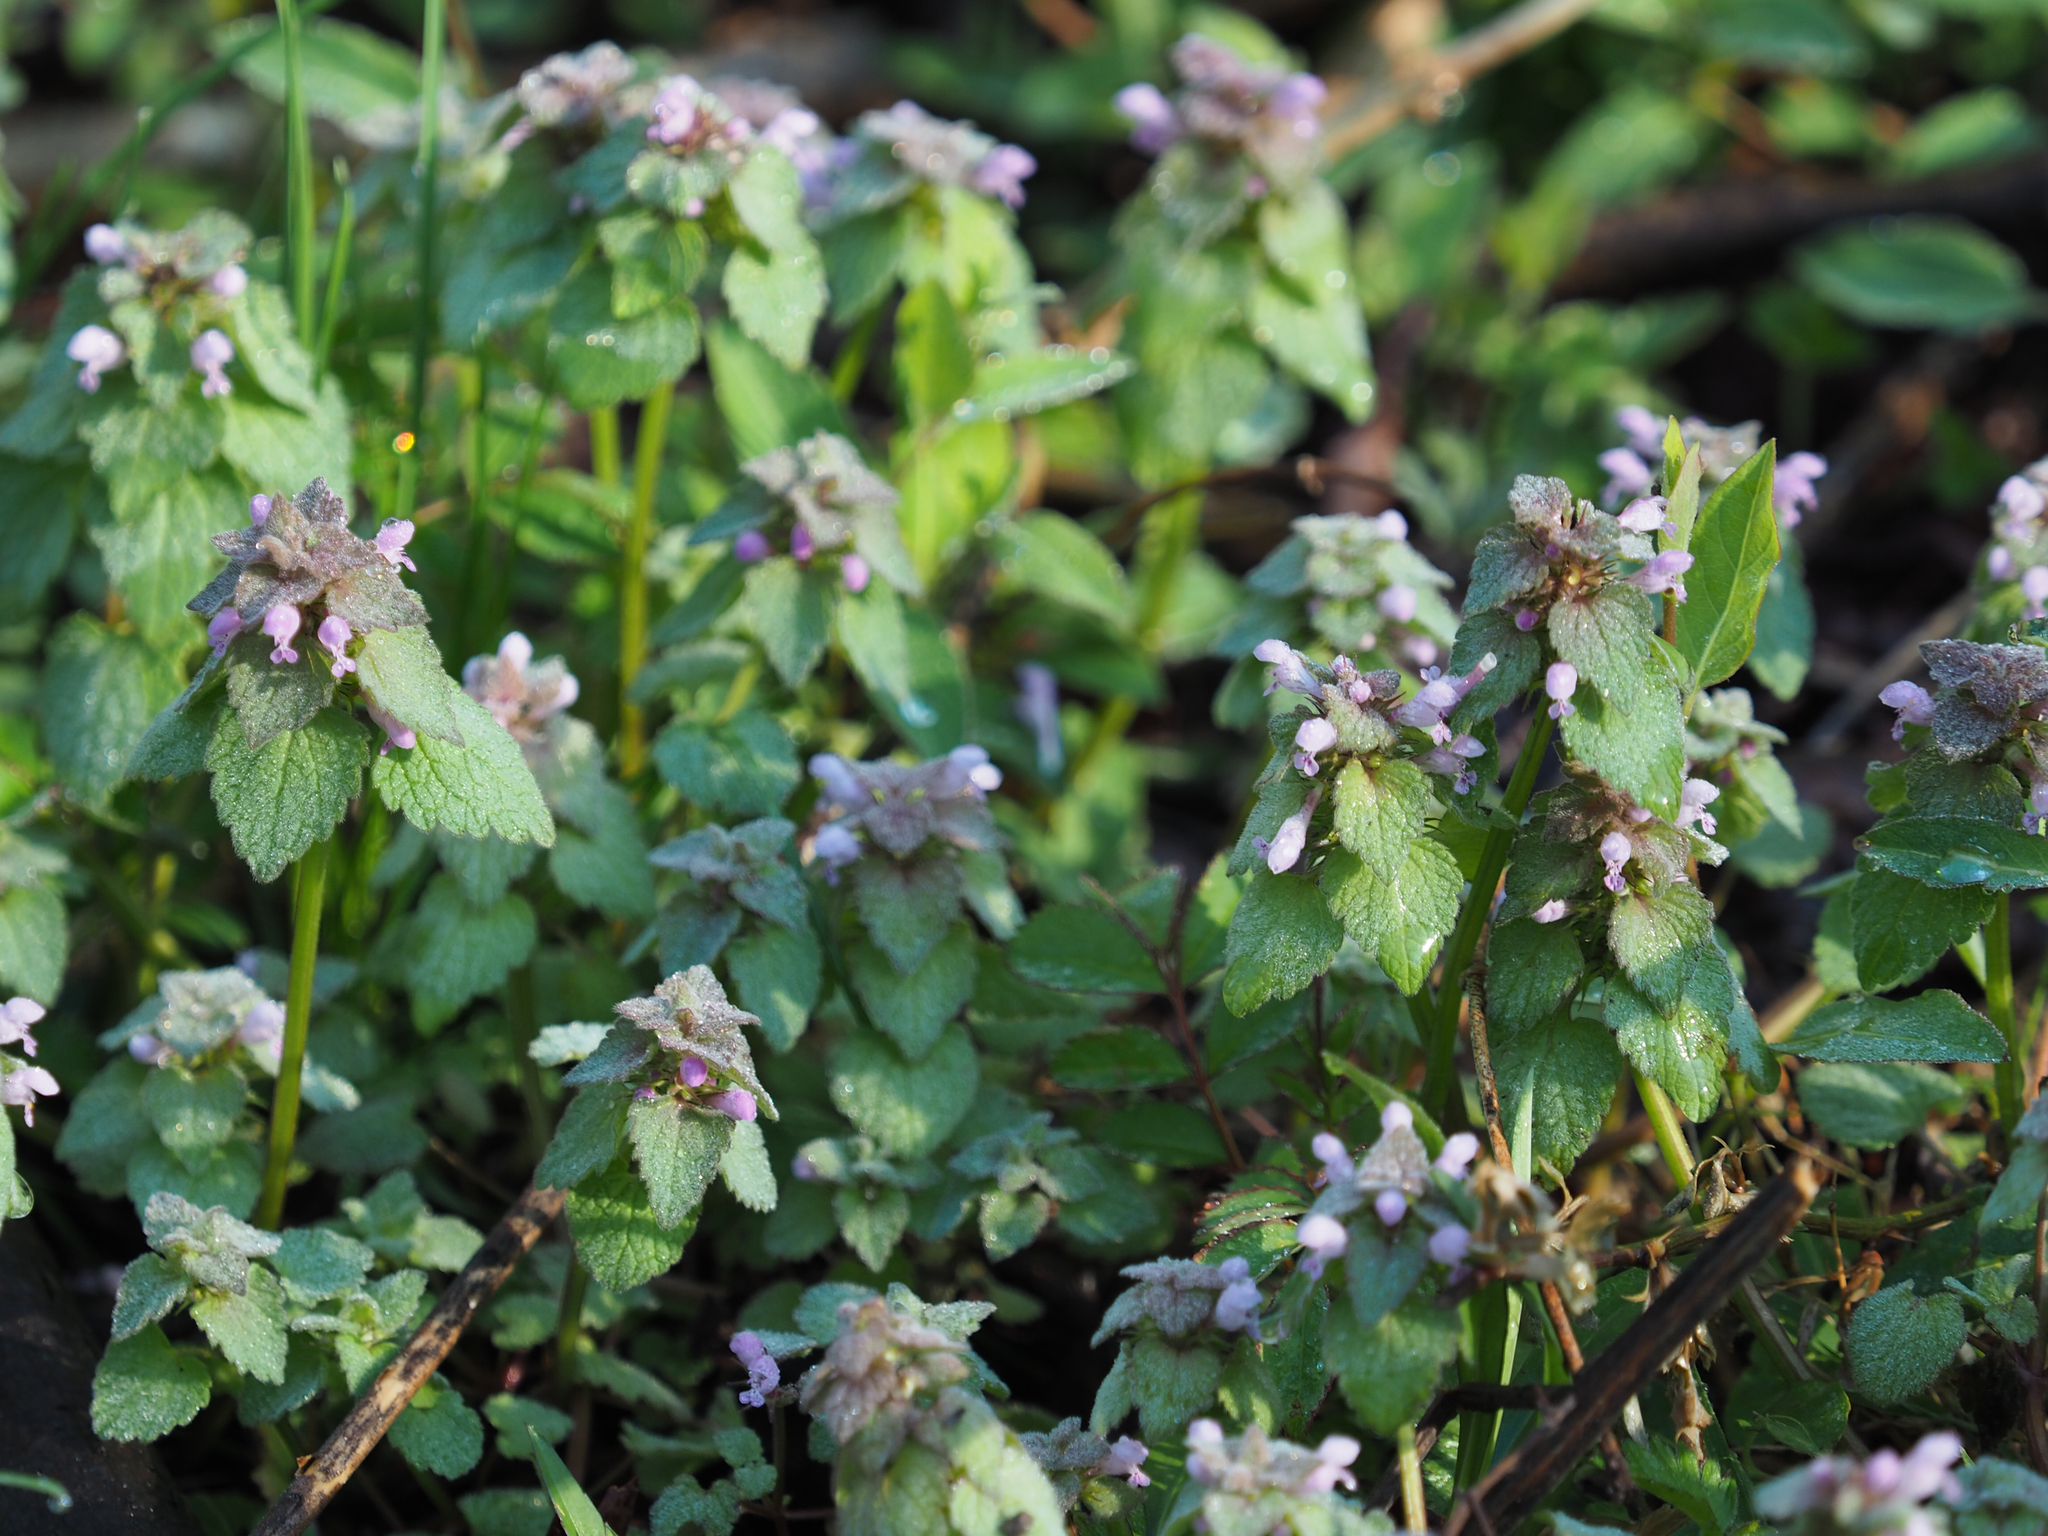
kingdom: Plantae
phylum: Tracheophyta
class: Magnoliopsida
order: Lamiales
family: Lamiaceae
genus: Lamium
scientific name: Lamium purpureum
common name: Red dead-nettle
